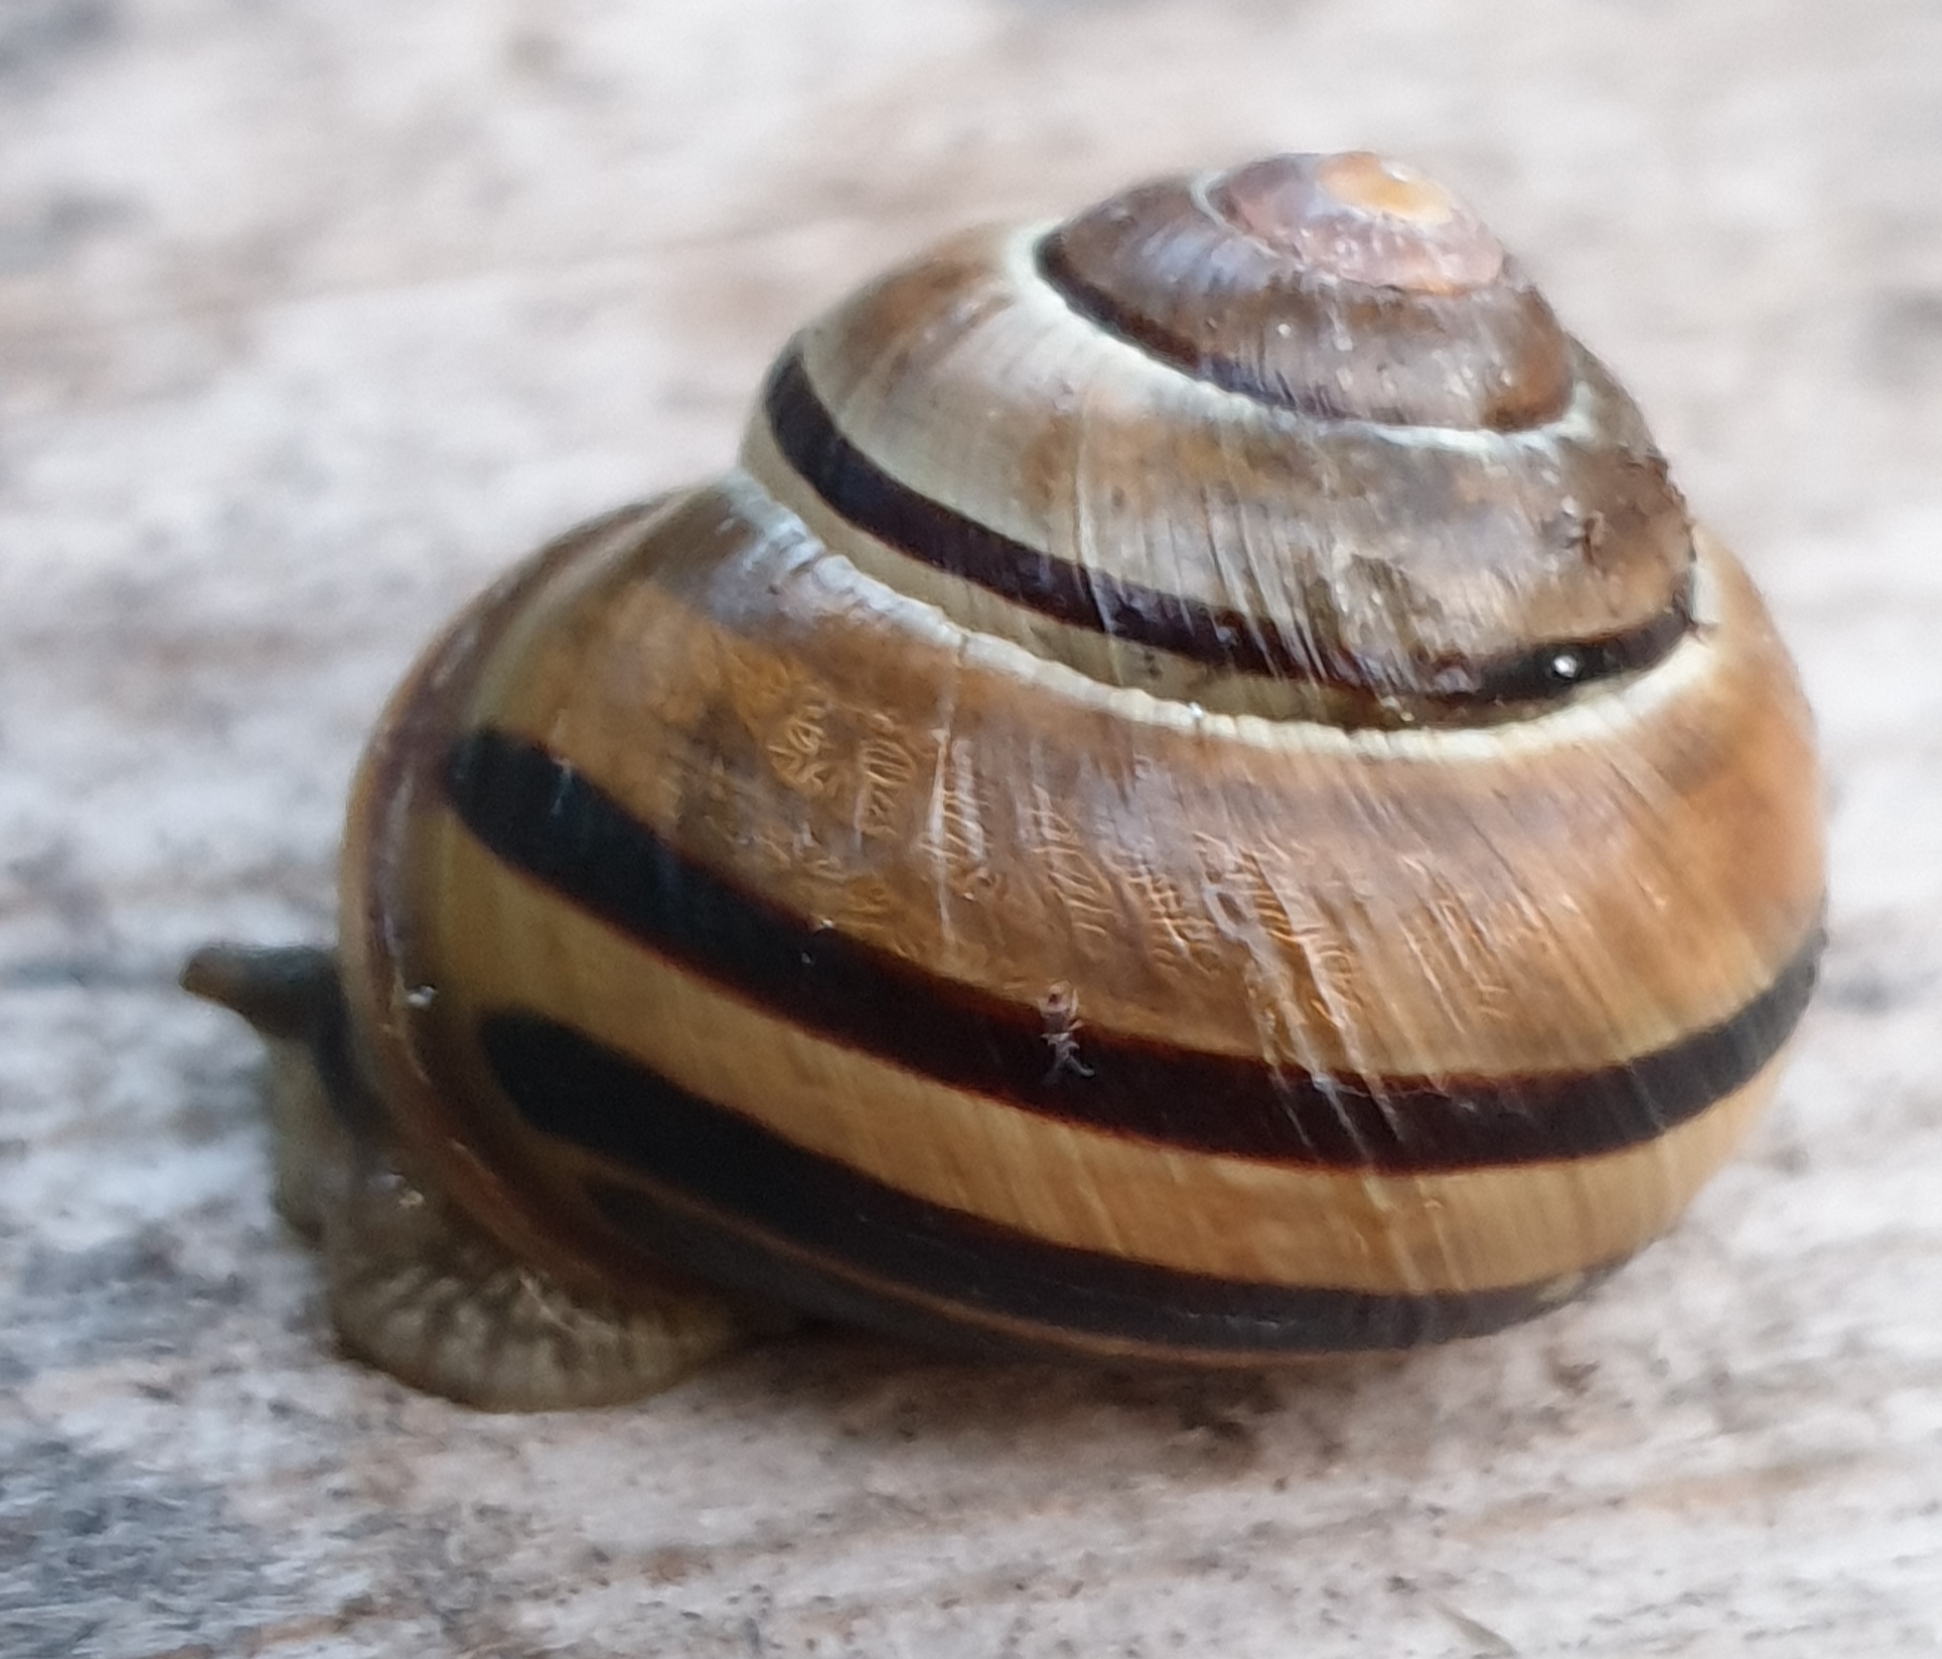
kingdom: Animalia
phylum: Mollusca
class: Gastropoda
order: Stylommatophora
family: Helicidae
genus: Cepaea
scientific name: Cepaea nemoralis
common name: Grovesnail
